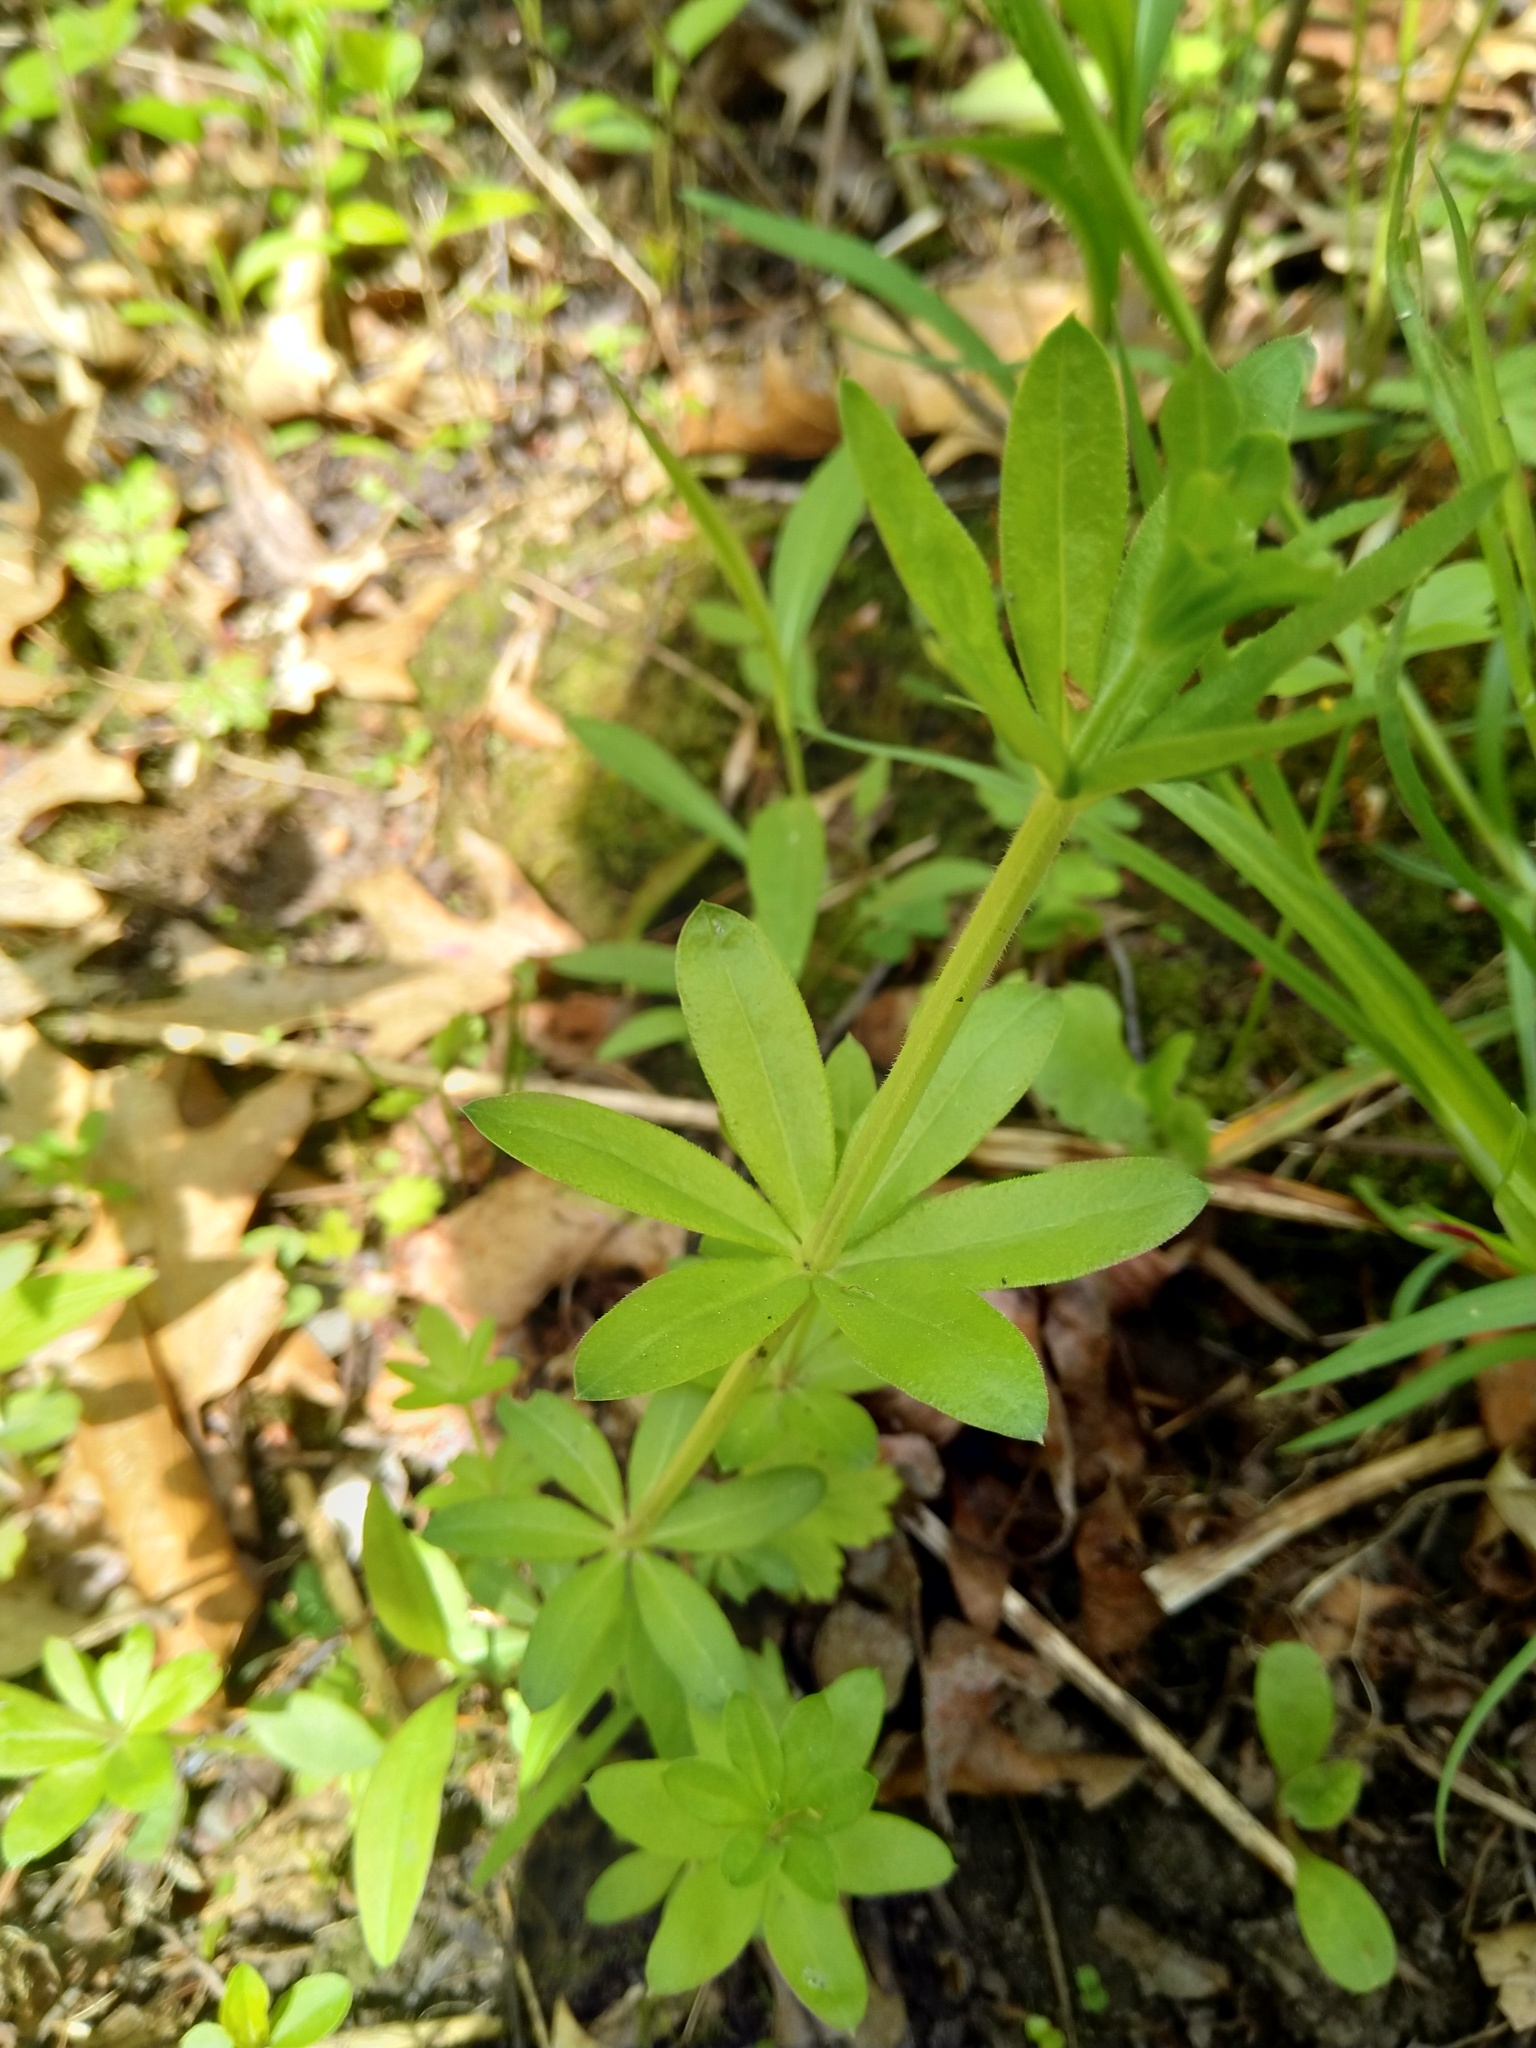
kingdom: Plantae
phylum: Tracheophyta
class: Magnoliopsida
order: Gentianales
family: Rubiaceae
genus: Galium
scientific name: Galium triflorum
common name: Fragrant bedstraw
